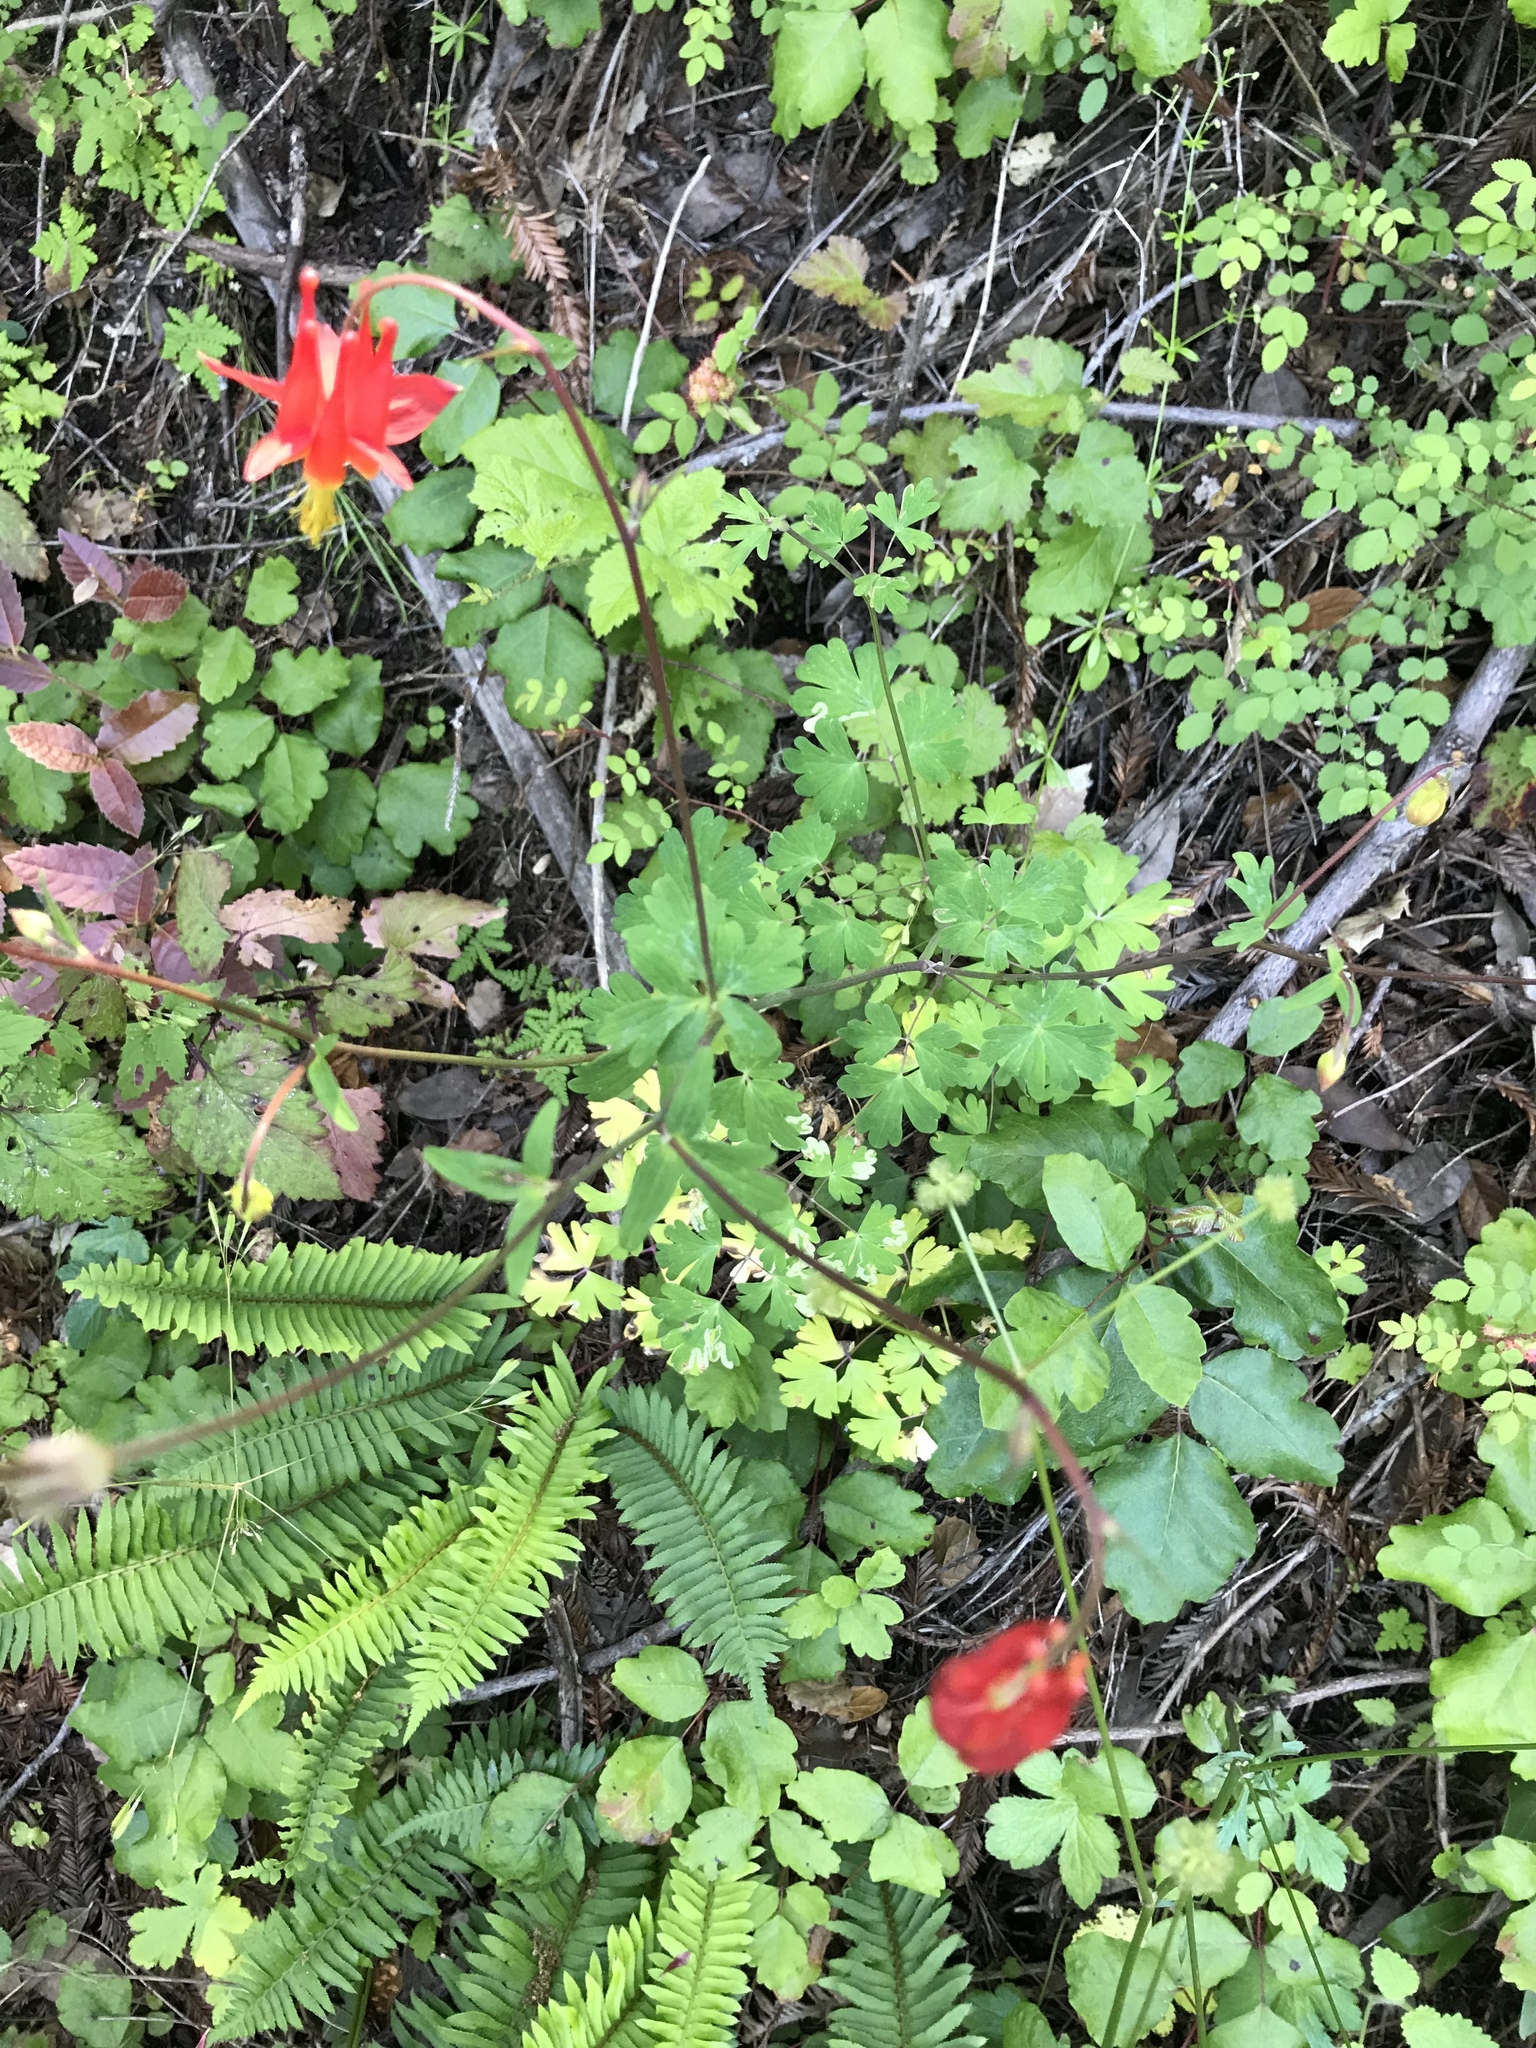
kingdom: Plantae
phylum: Tracheophyta
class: Magnoliopsida
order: Ranunculales
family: Ranunculaceae
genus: Aquilegia
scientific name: Aquilegia formosa
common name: Sitka columbine
